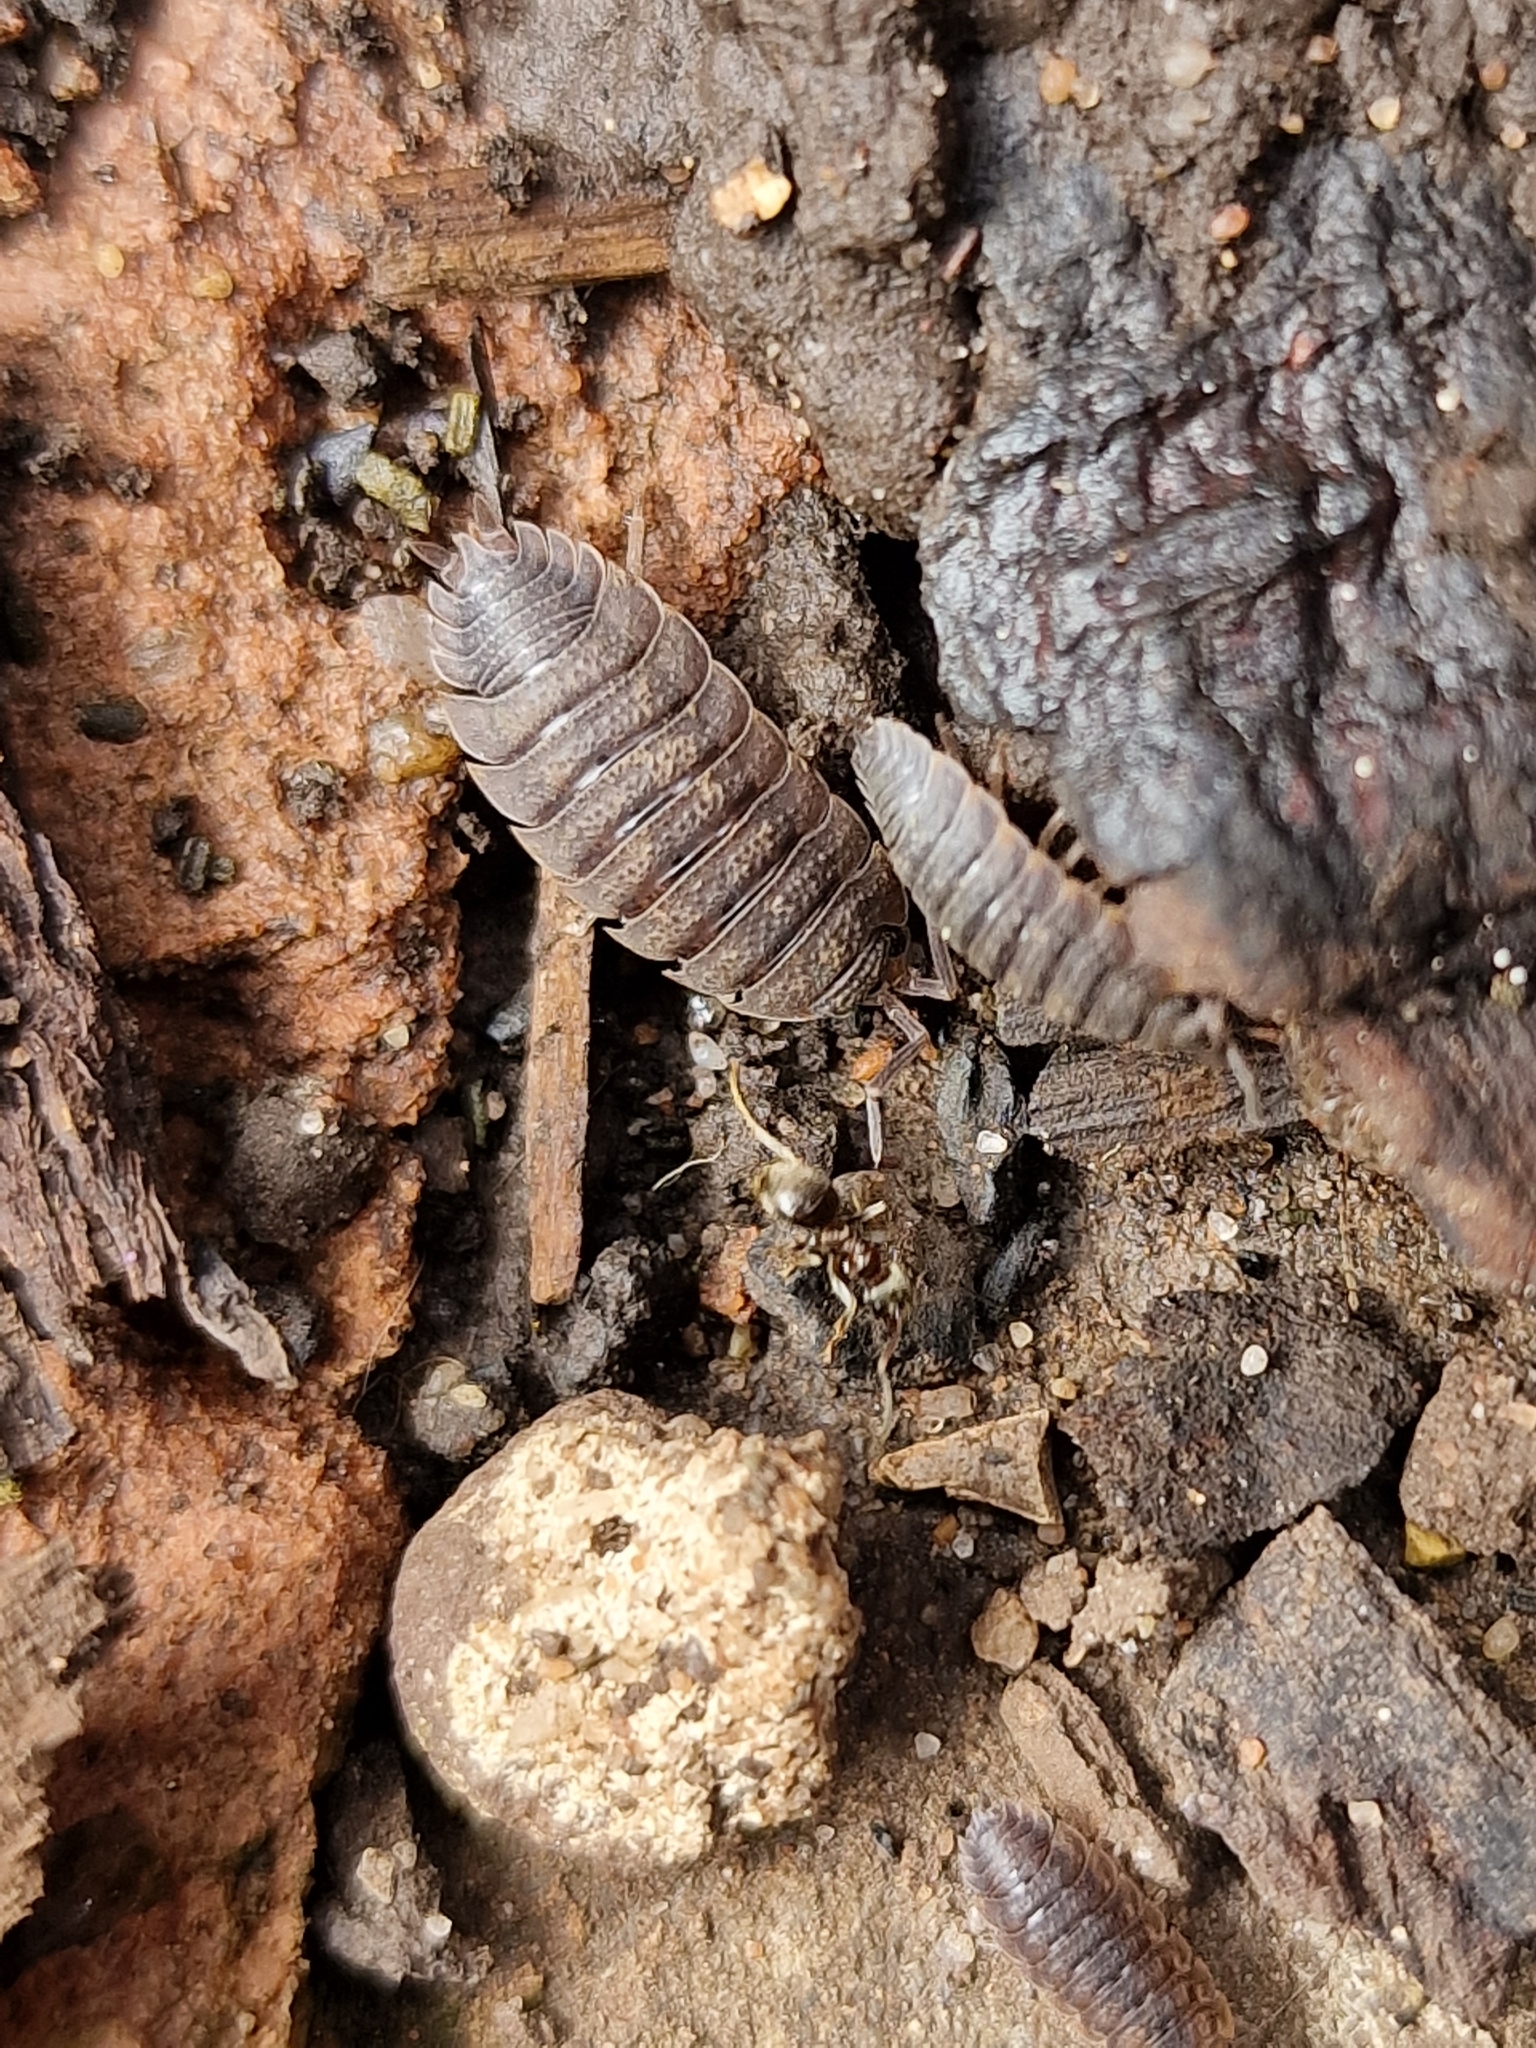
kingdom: Animalia
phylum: Arthropoda
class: Malacostraca
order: Isopoda
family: Porcellionidae
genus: Porcellio
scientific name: Porcellio scaber
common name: Common rough woodlouse
